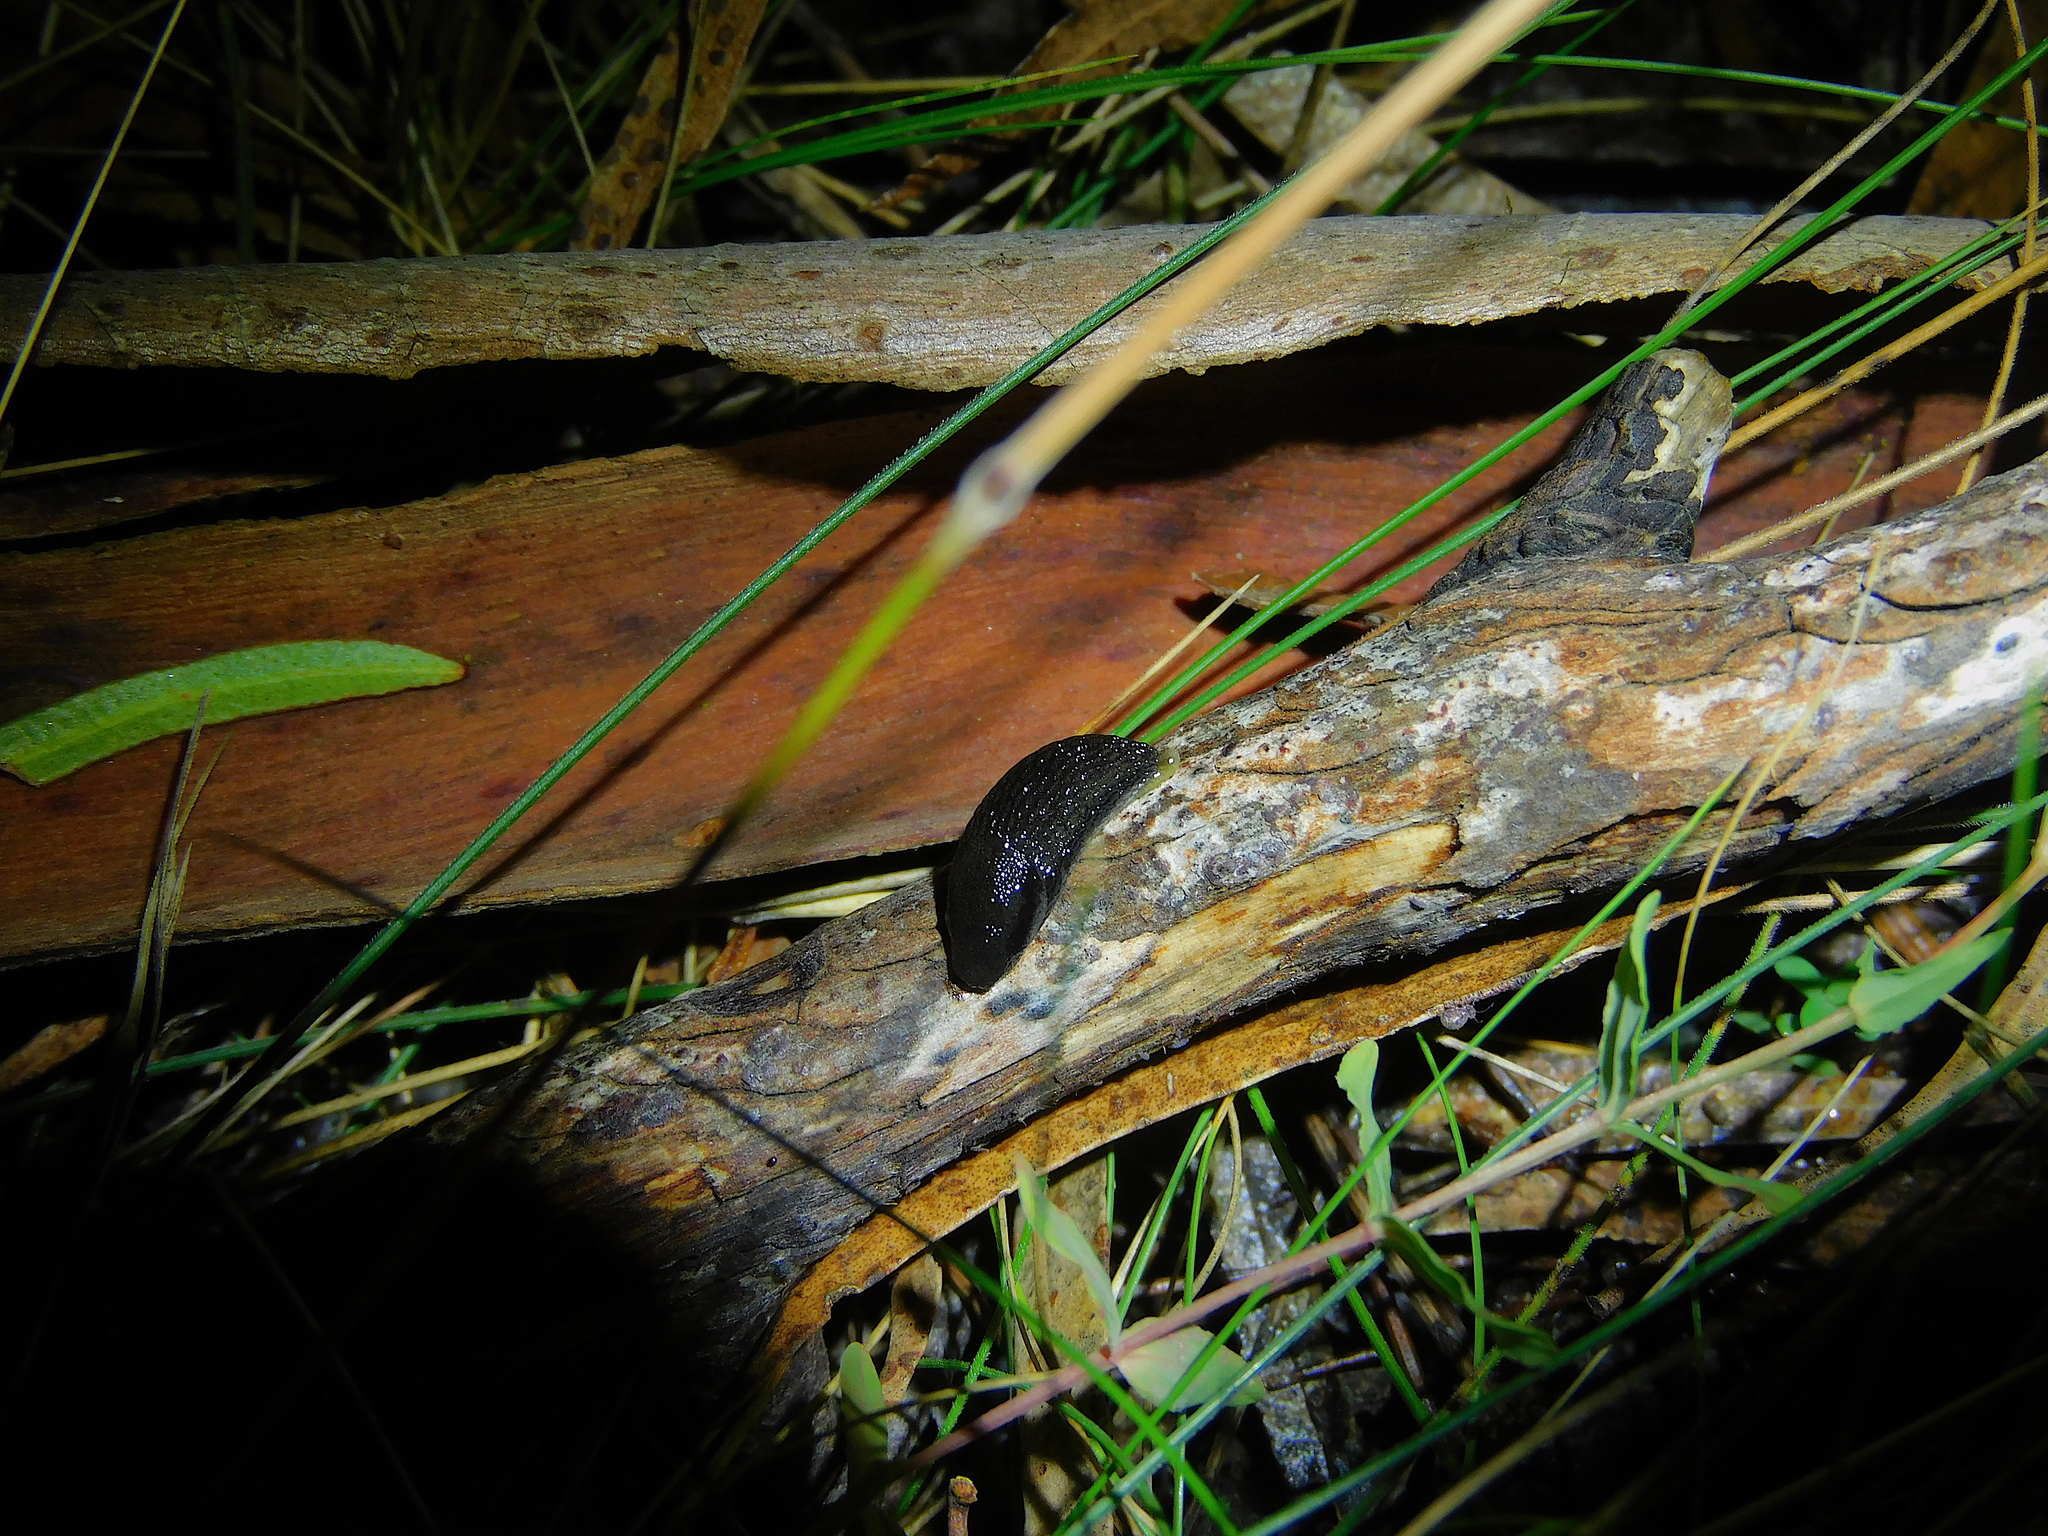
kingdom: Animalia
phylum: Mollusca
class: Gastropoda
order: Stylommatophora
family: Arionidae
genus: Arion
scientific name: Arion hortensis
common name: Garden arion
